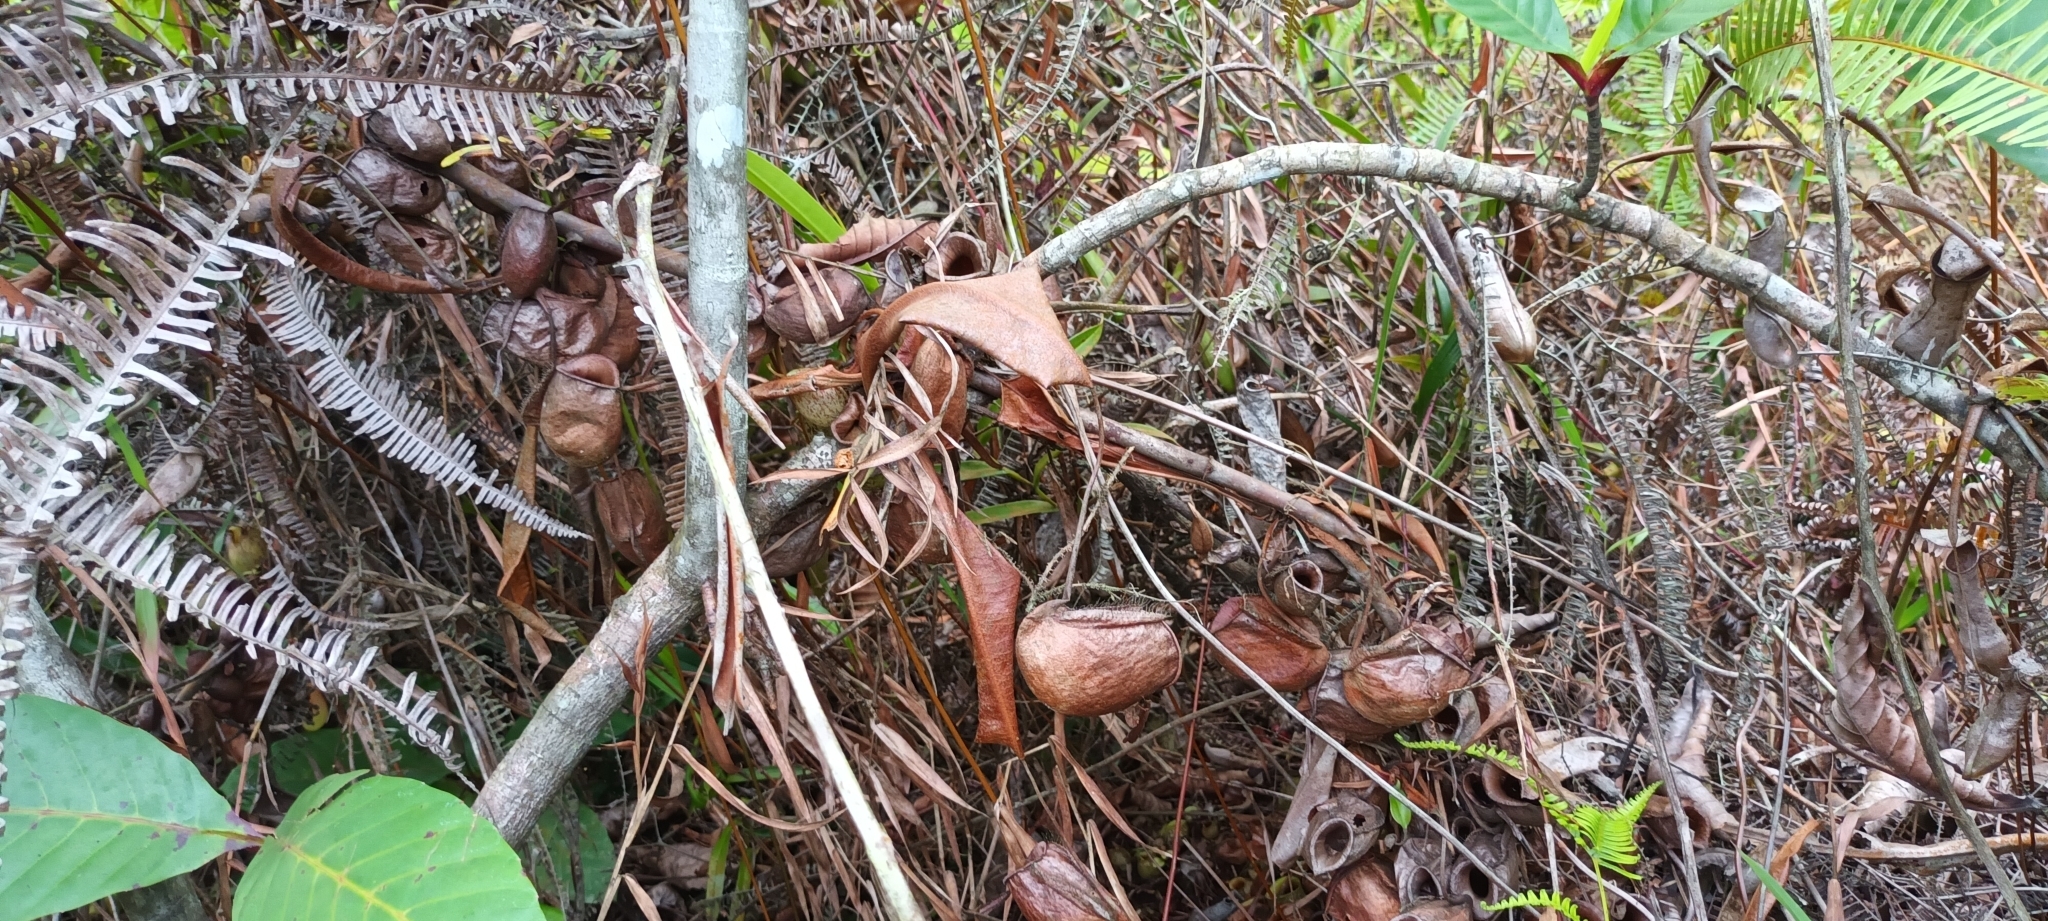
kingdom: Plantae
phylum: Tracheophyta
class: Magnoliopsida
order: Caryophyllales
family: Nepenthaceae
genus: Nepenthes
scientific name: Nepenthes ampullaria
